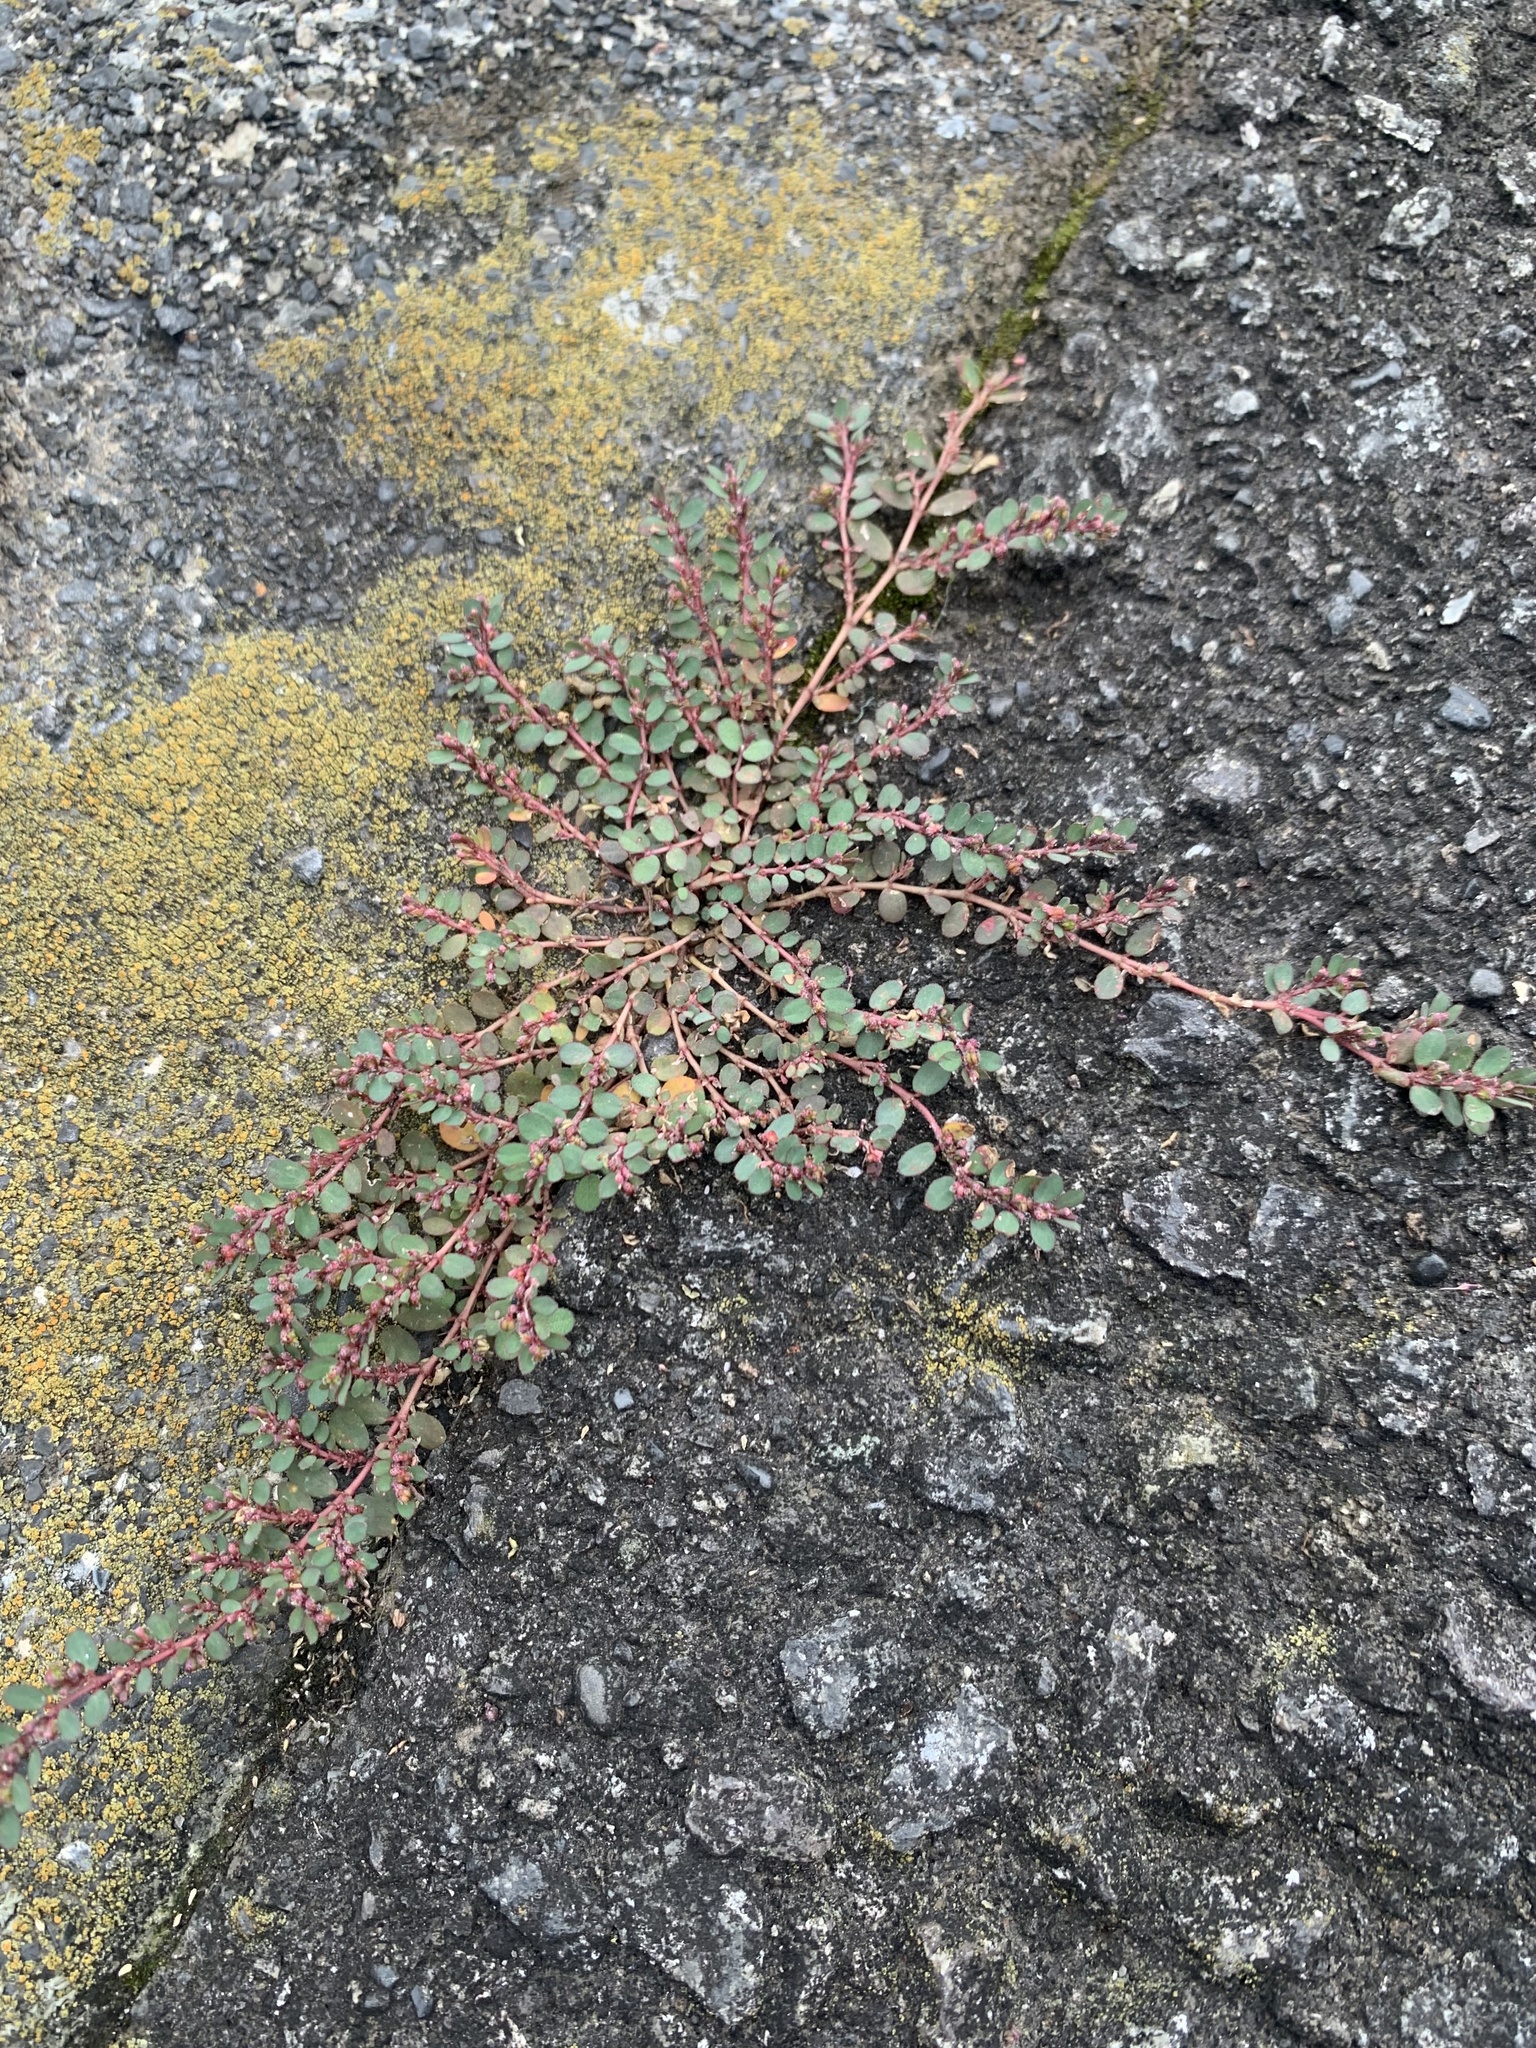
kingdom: Plantae
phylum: Tracheophyta
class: Magnoliopsida
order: Malpighiales
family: Euphorbiaceae
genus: Euphorbia
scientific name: Euphorbia prostrata
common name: Prostrate sandmat
